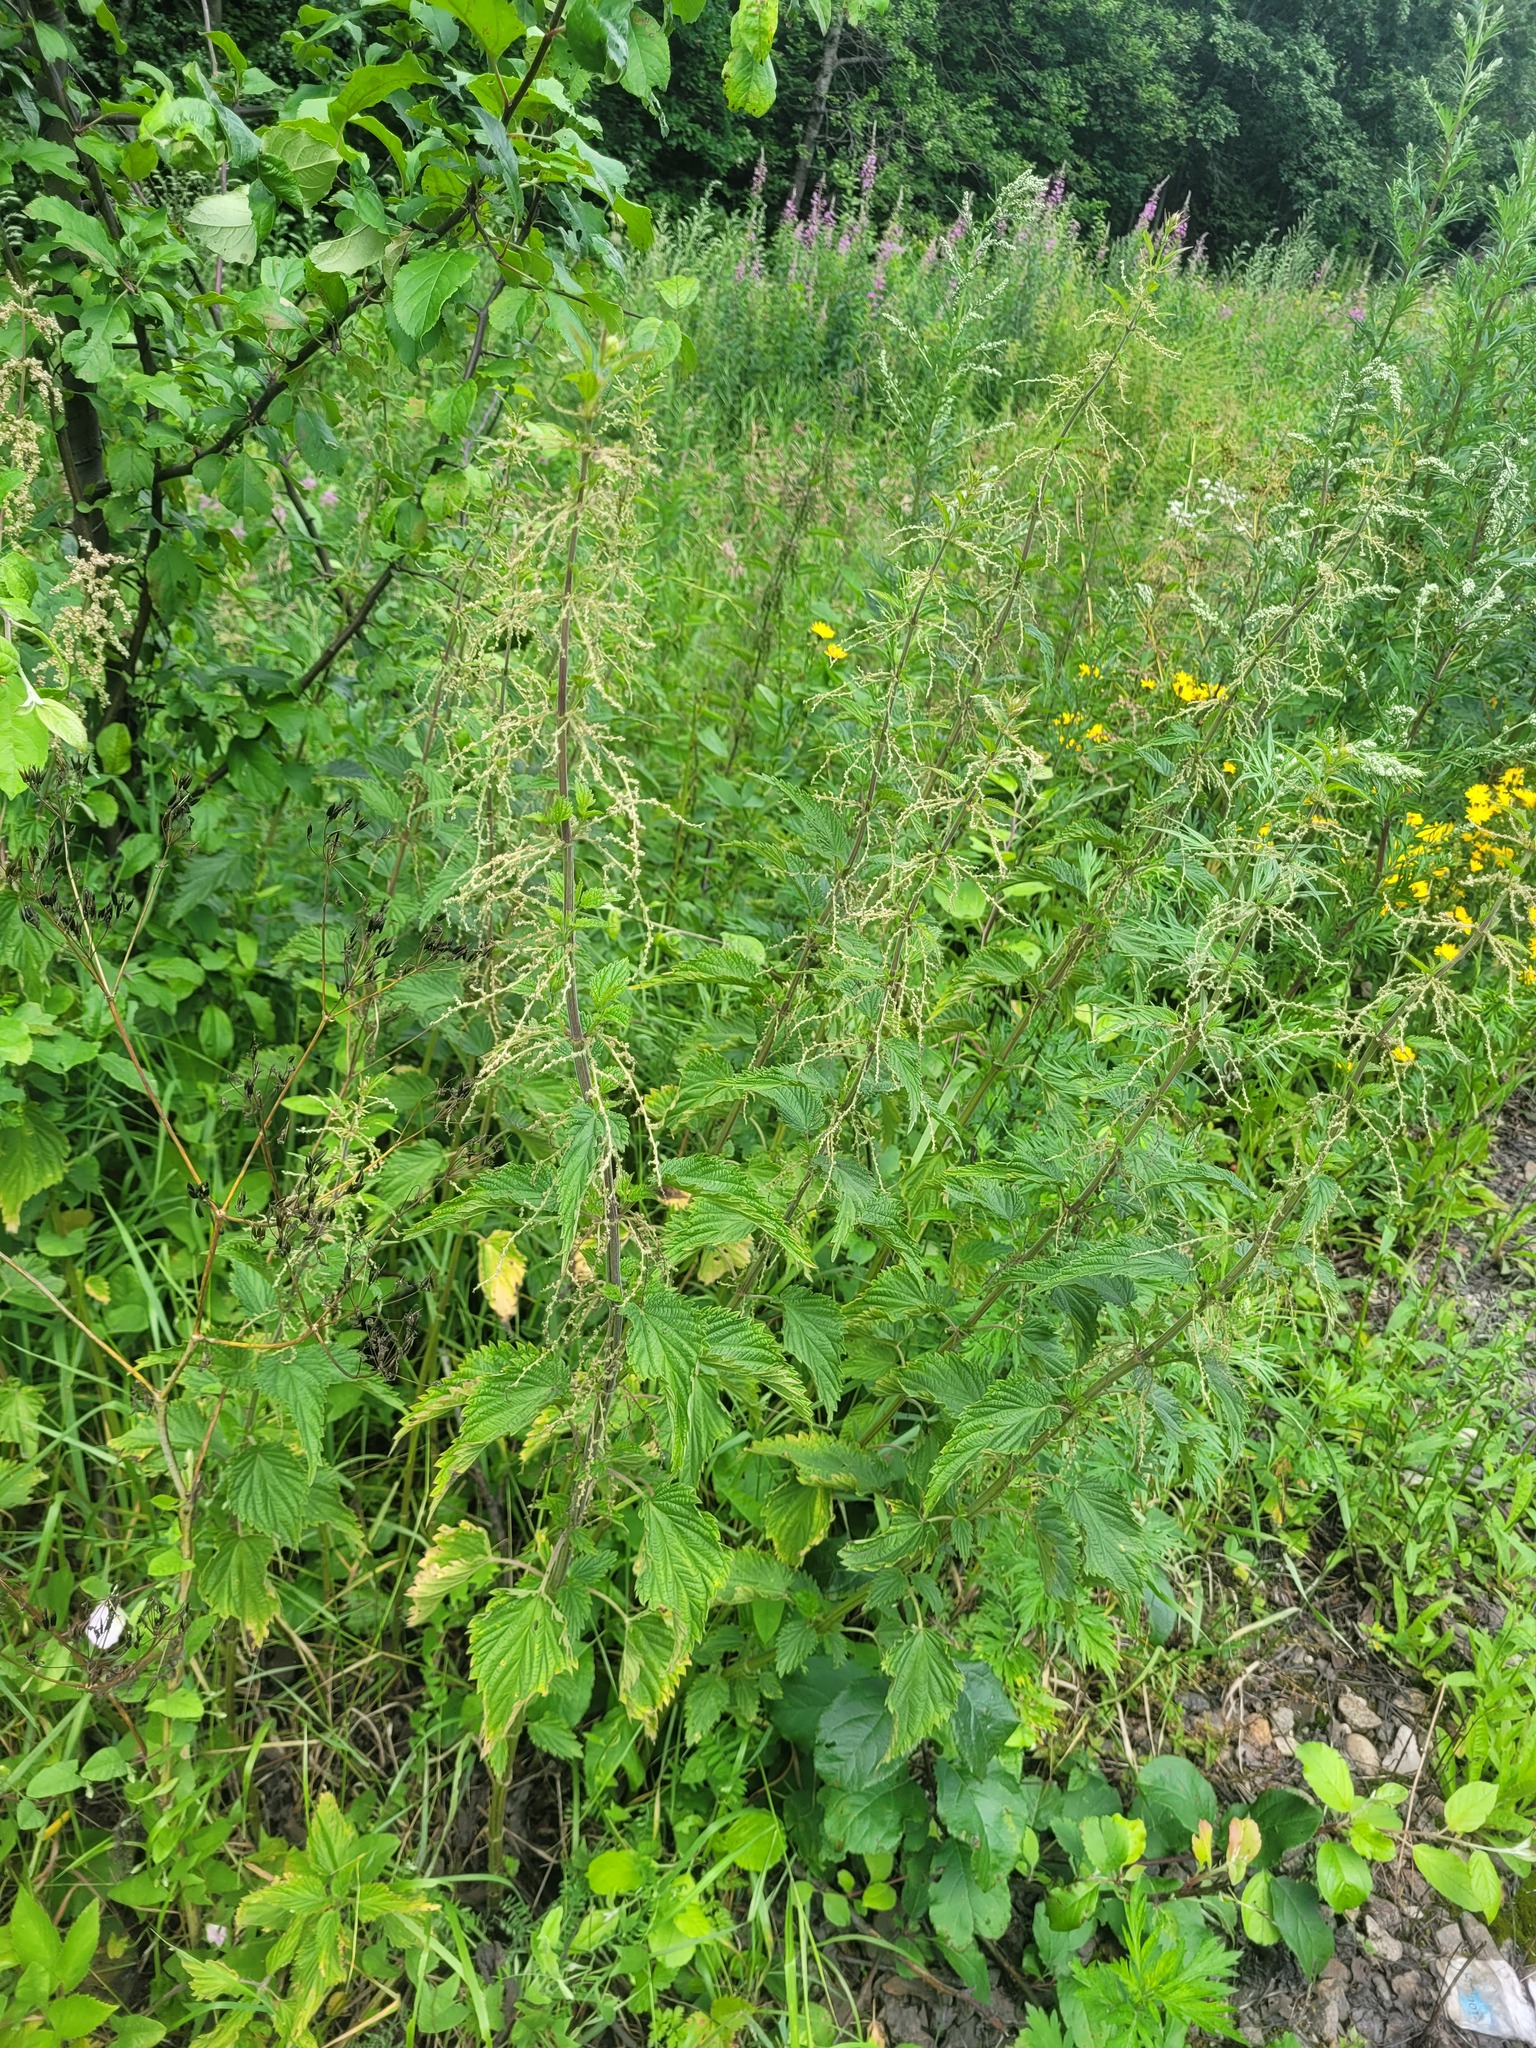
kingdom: Plantae
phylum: Tracheophyta
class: Magnoliopsida
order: Rosales
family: Urticaceae
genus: Urtica
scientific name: Urtica dioica
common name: Common nettle
